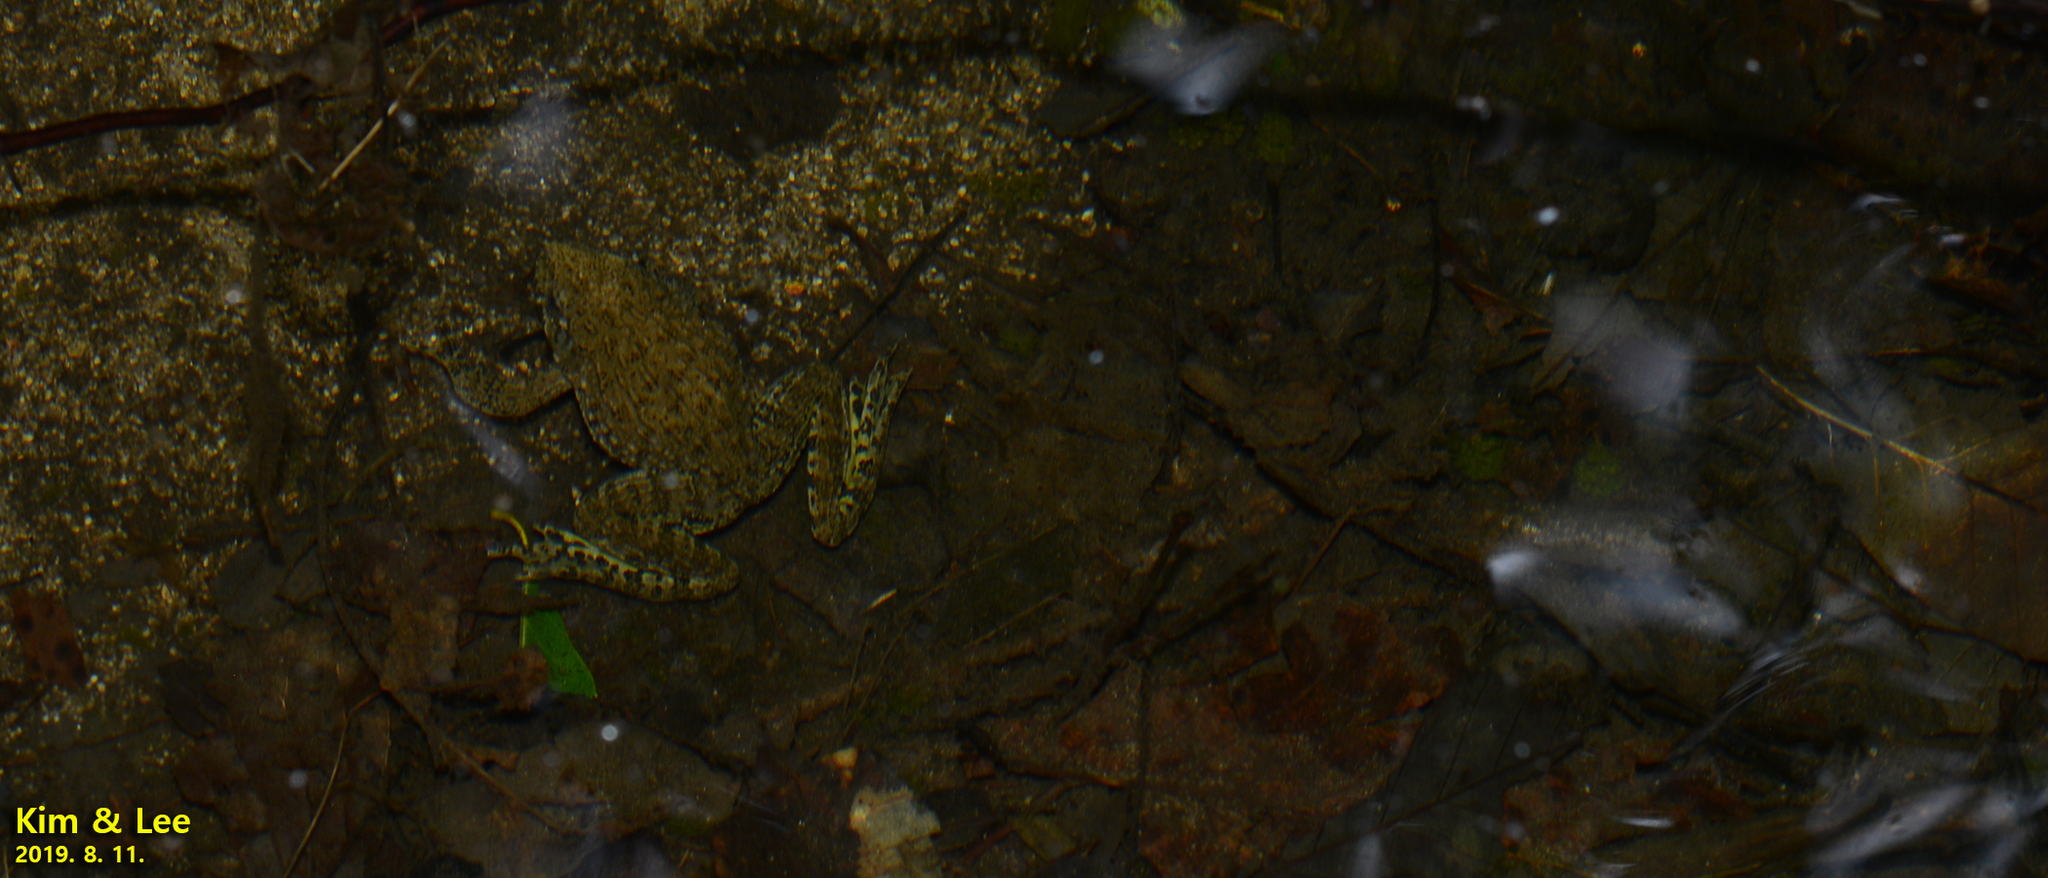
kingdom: Animalia
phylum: Chordata
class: Amphibia
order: Anura
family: Ranidae
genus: Glandirana
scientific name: Glandirana emeljanovi
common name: Northeast china rough-skinned frog
